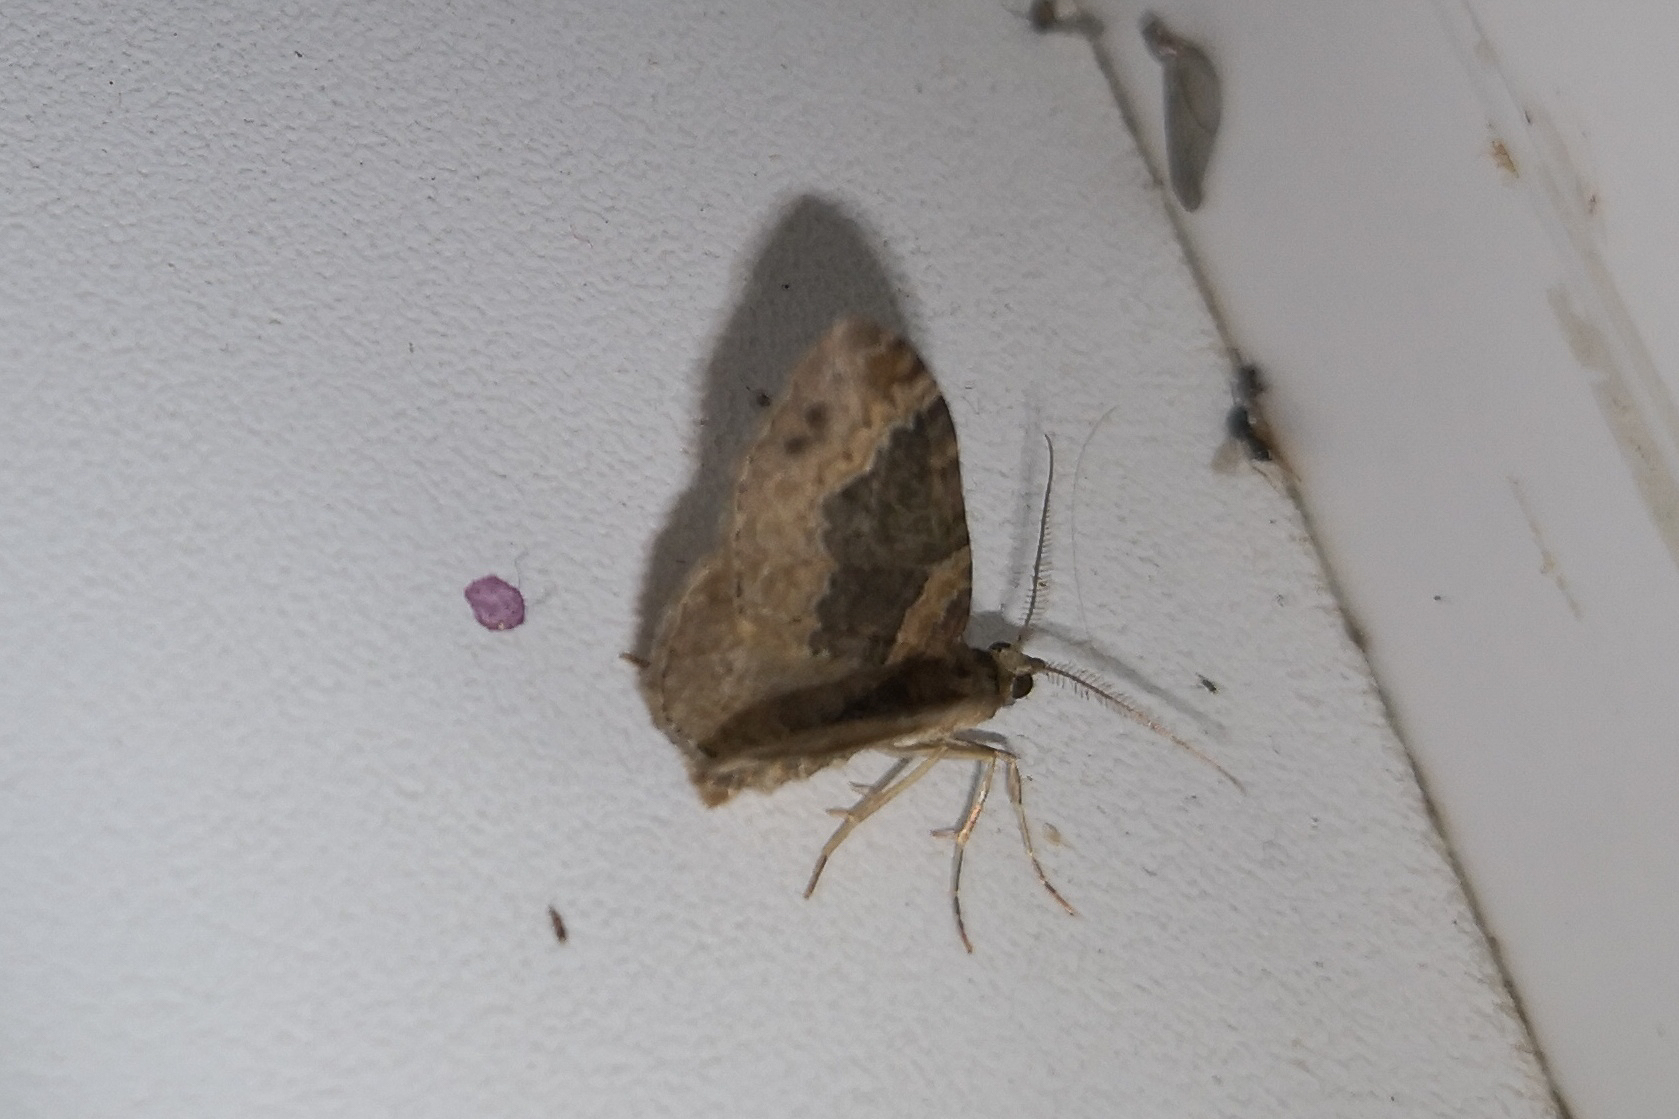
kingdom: Animalia
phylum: Arthropoda
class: Insecta
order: Lepidoptera
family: Geometridae
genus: Xanthorhoe
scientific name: Xanthorhoe ferrugata
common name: Dark-barred twin-spot carpet
